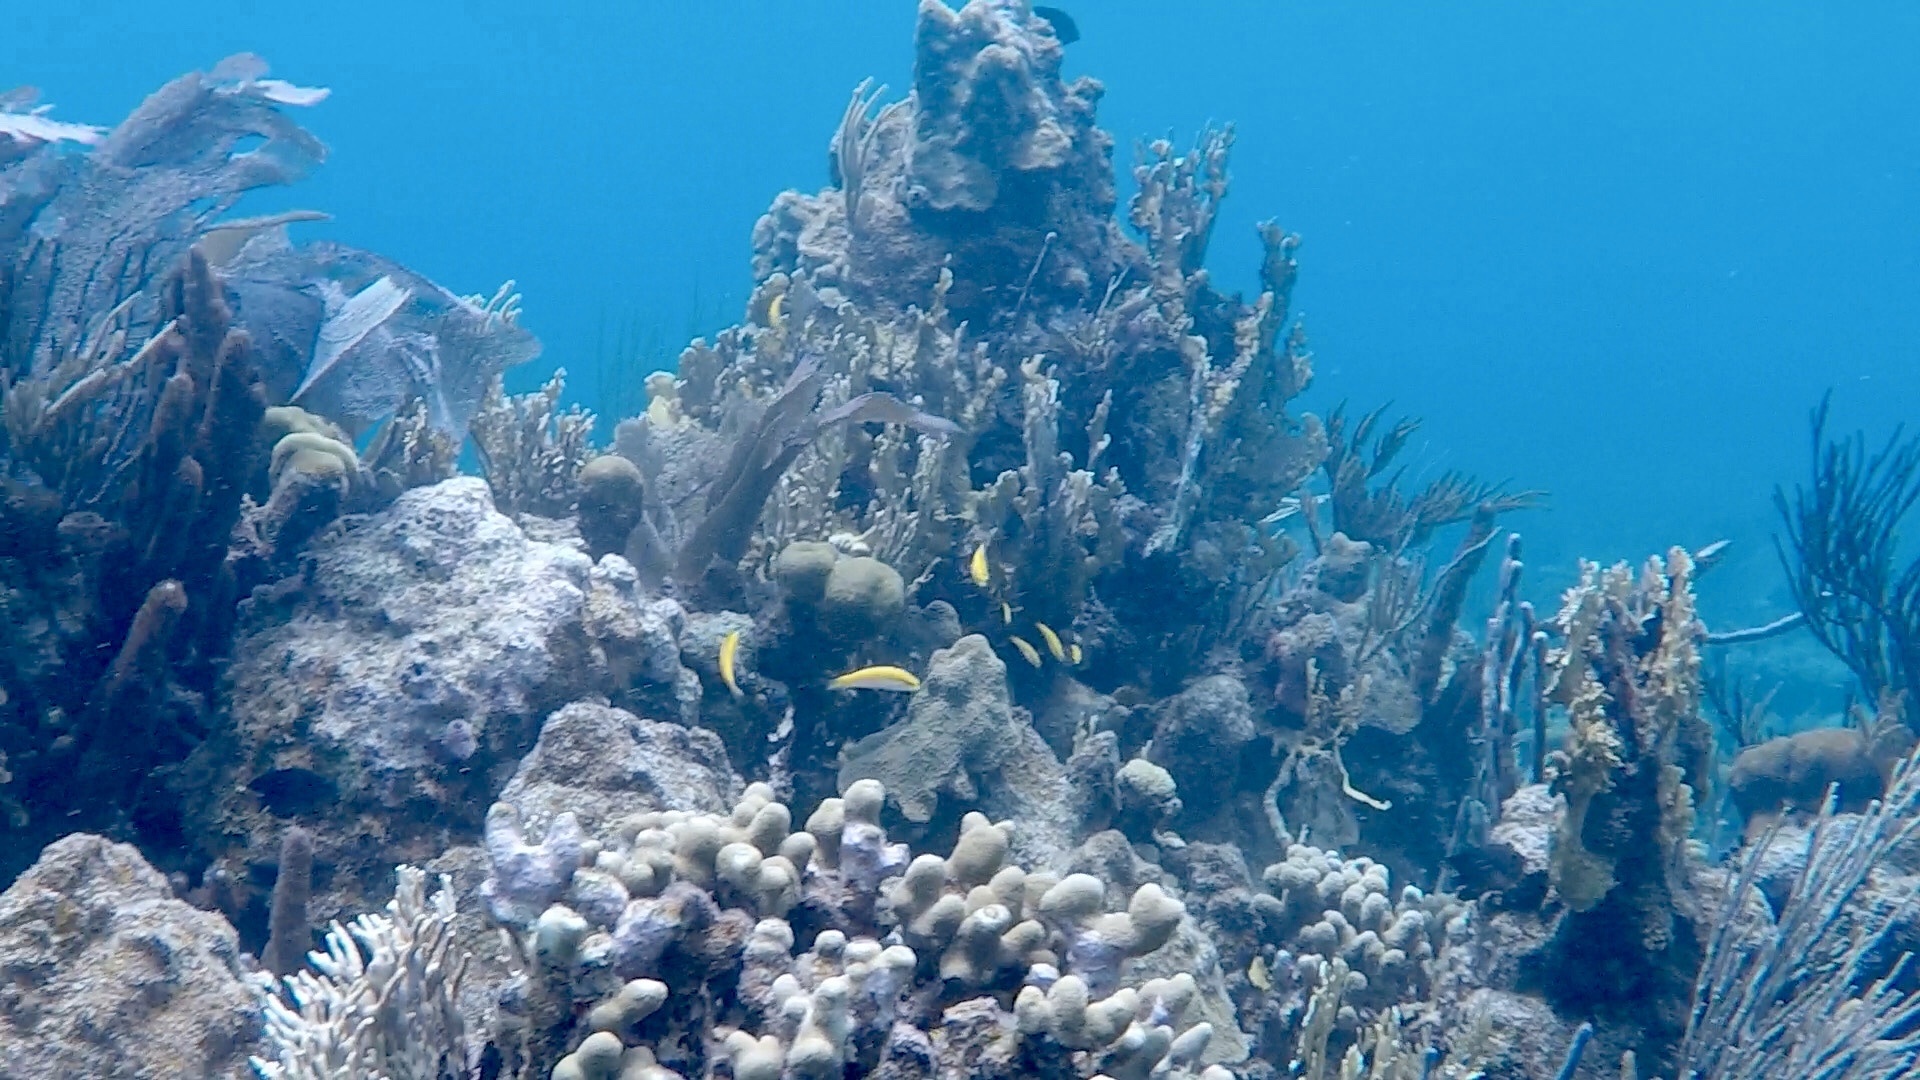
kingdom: Animalia
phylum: Cnidaria
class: Anthozoa
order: Scleractinia
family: Poritidae
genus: Porites
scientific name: Porites porites
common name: Finger coral
